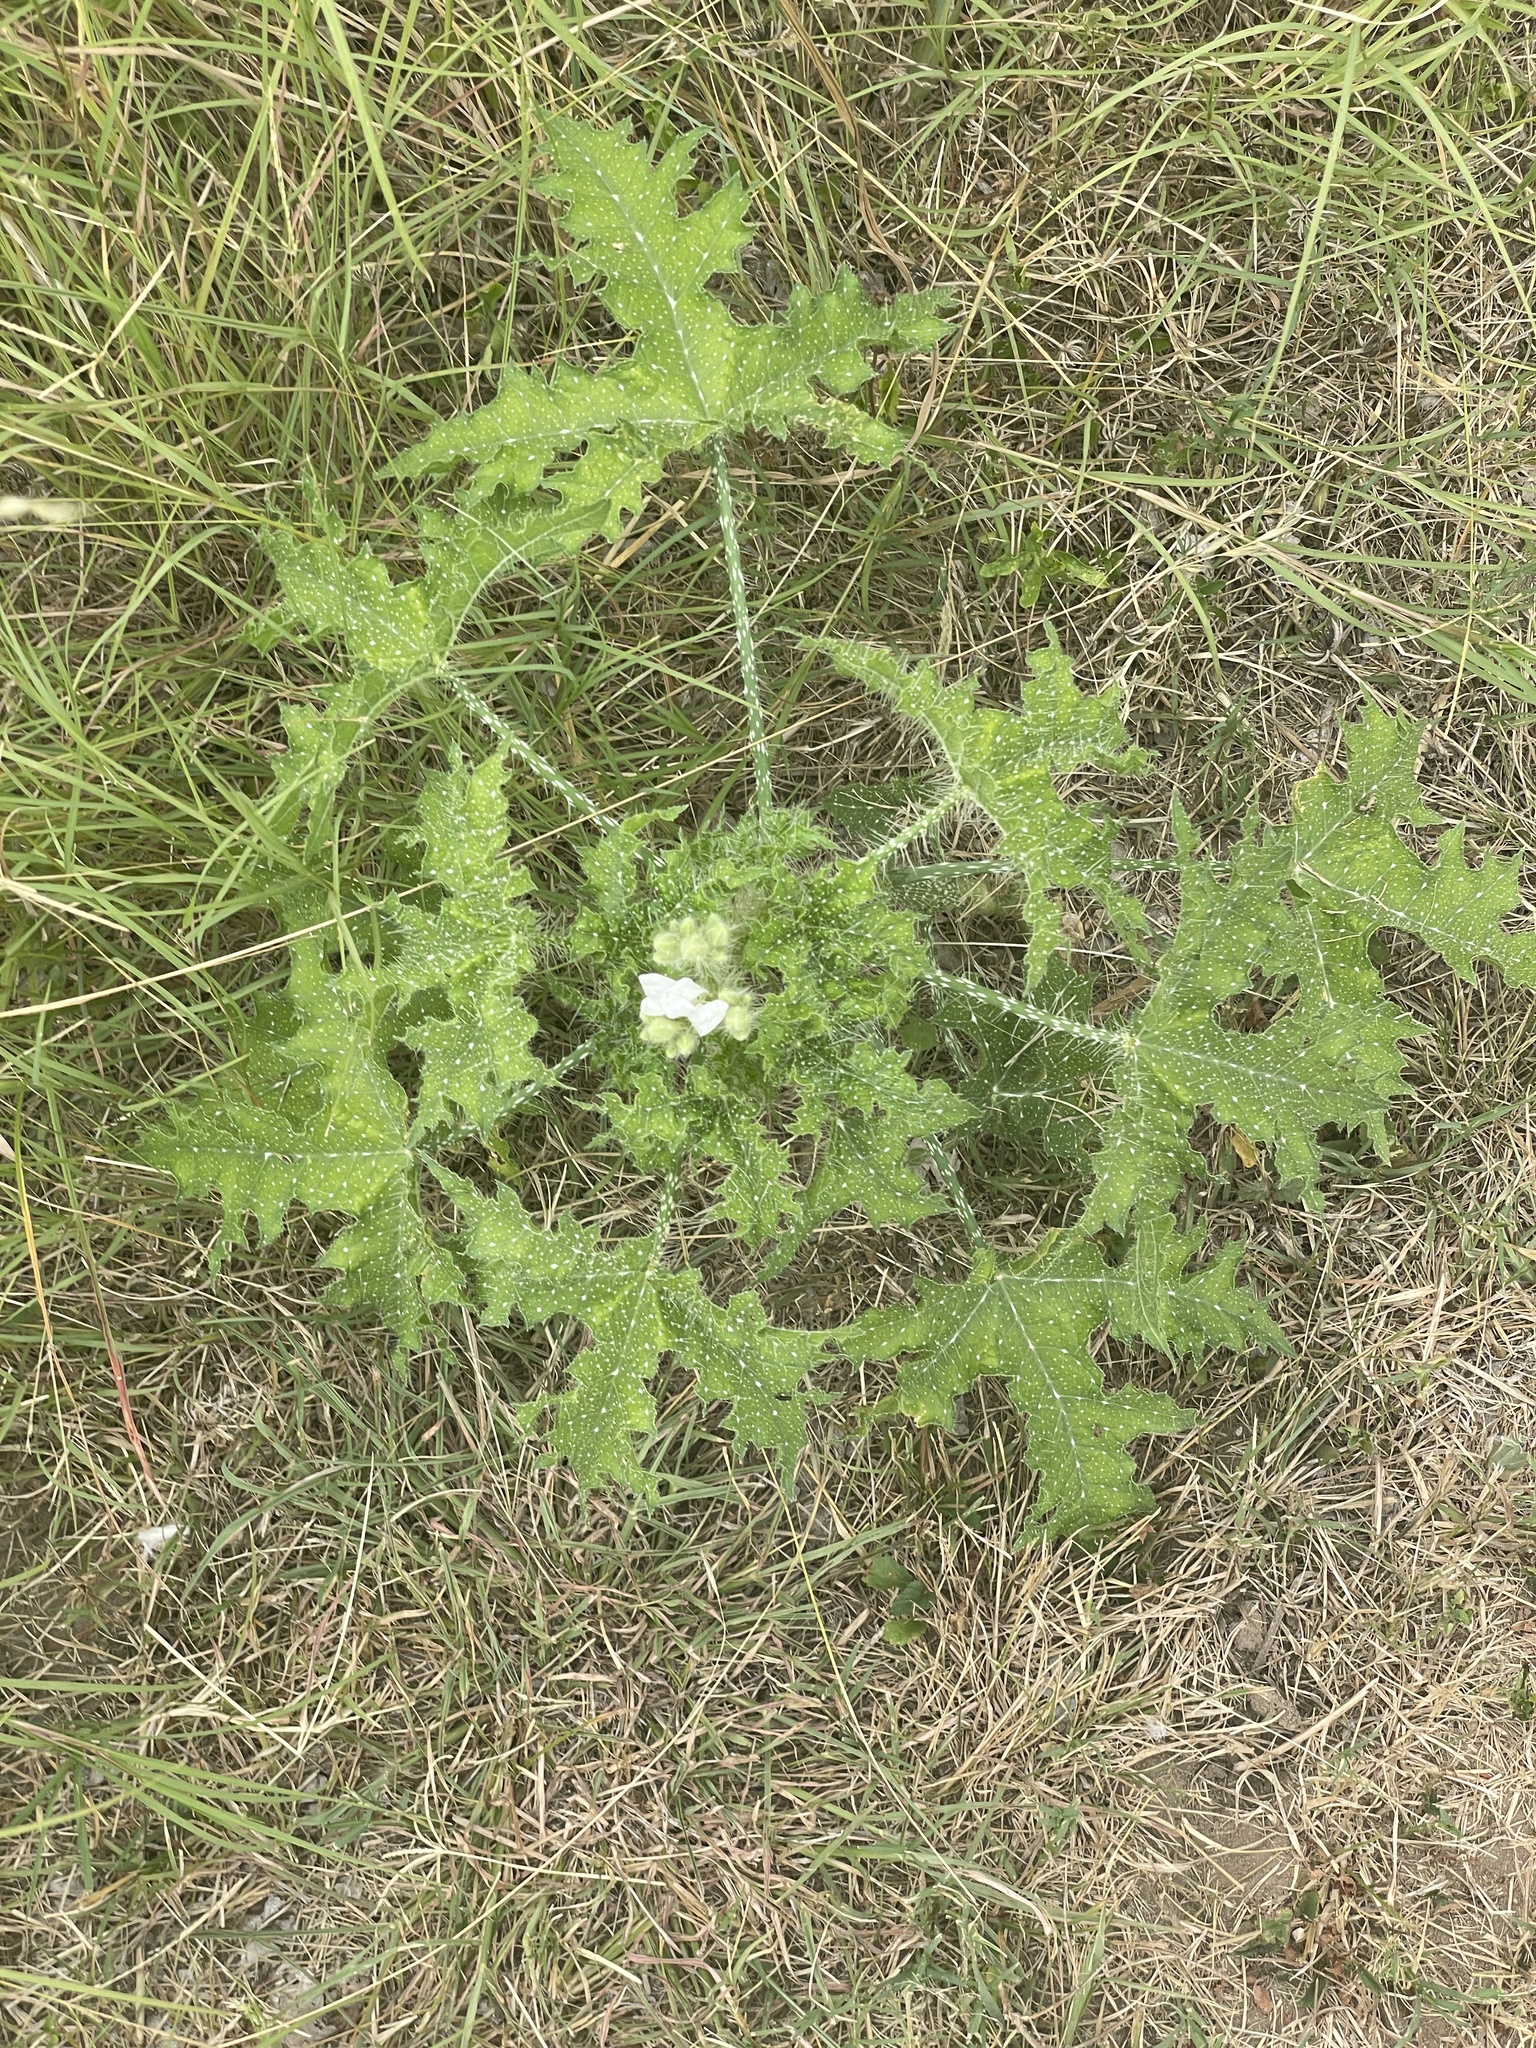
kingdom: Plantae
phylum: Tracheophyta
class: Magnoliopsida
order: Malpighiales
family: Euphorbiaceae
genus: Cnidoscolus
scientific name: Cnidoscolus texanus
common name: Texas bull-nettle
